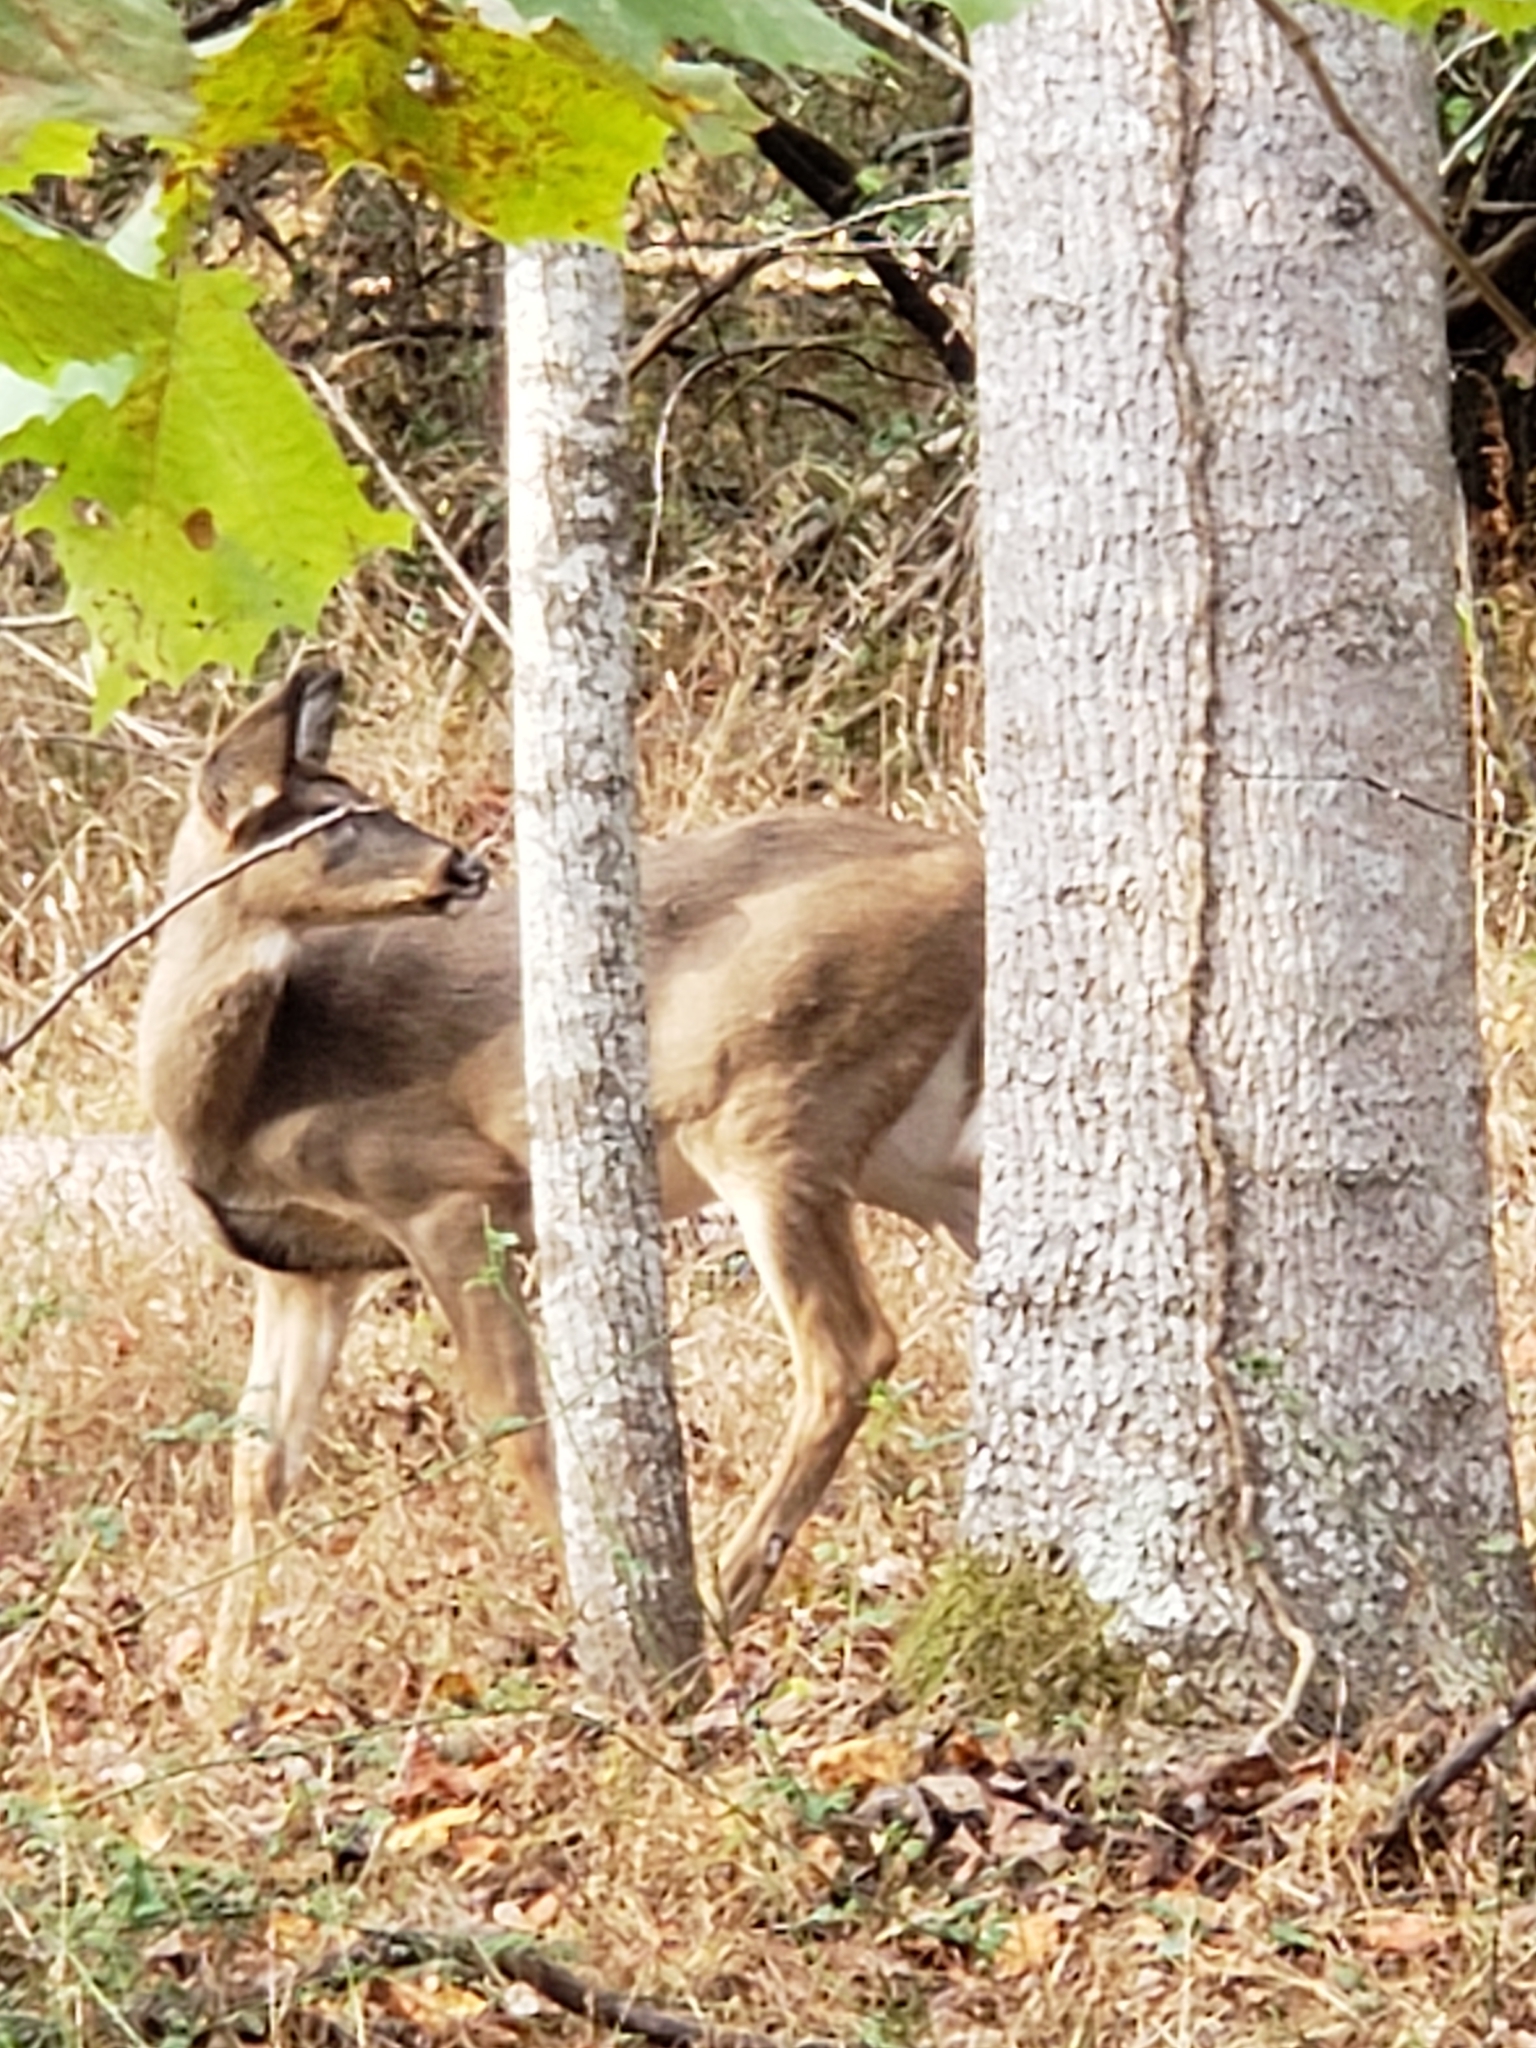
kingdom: Animalia
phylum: Chordata
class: Mammalia
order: Artiodactyla
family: Cervidae
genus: Odocoileus
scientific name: Odocoileus virginianus
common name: White-tailed deer
